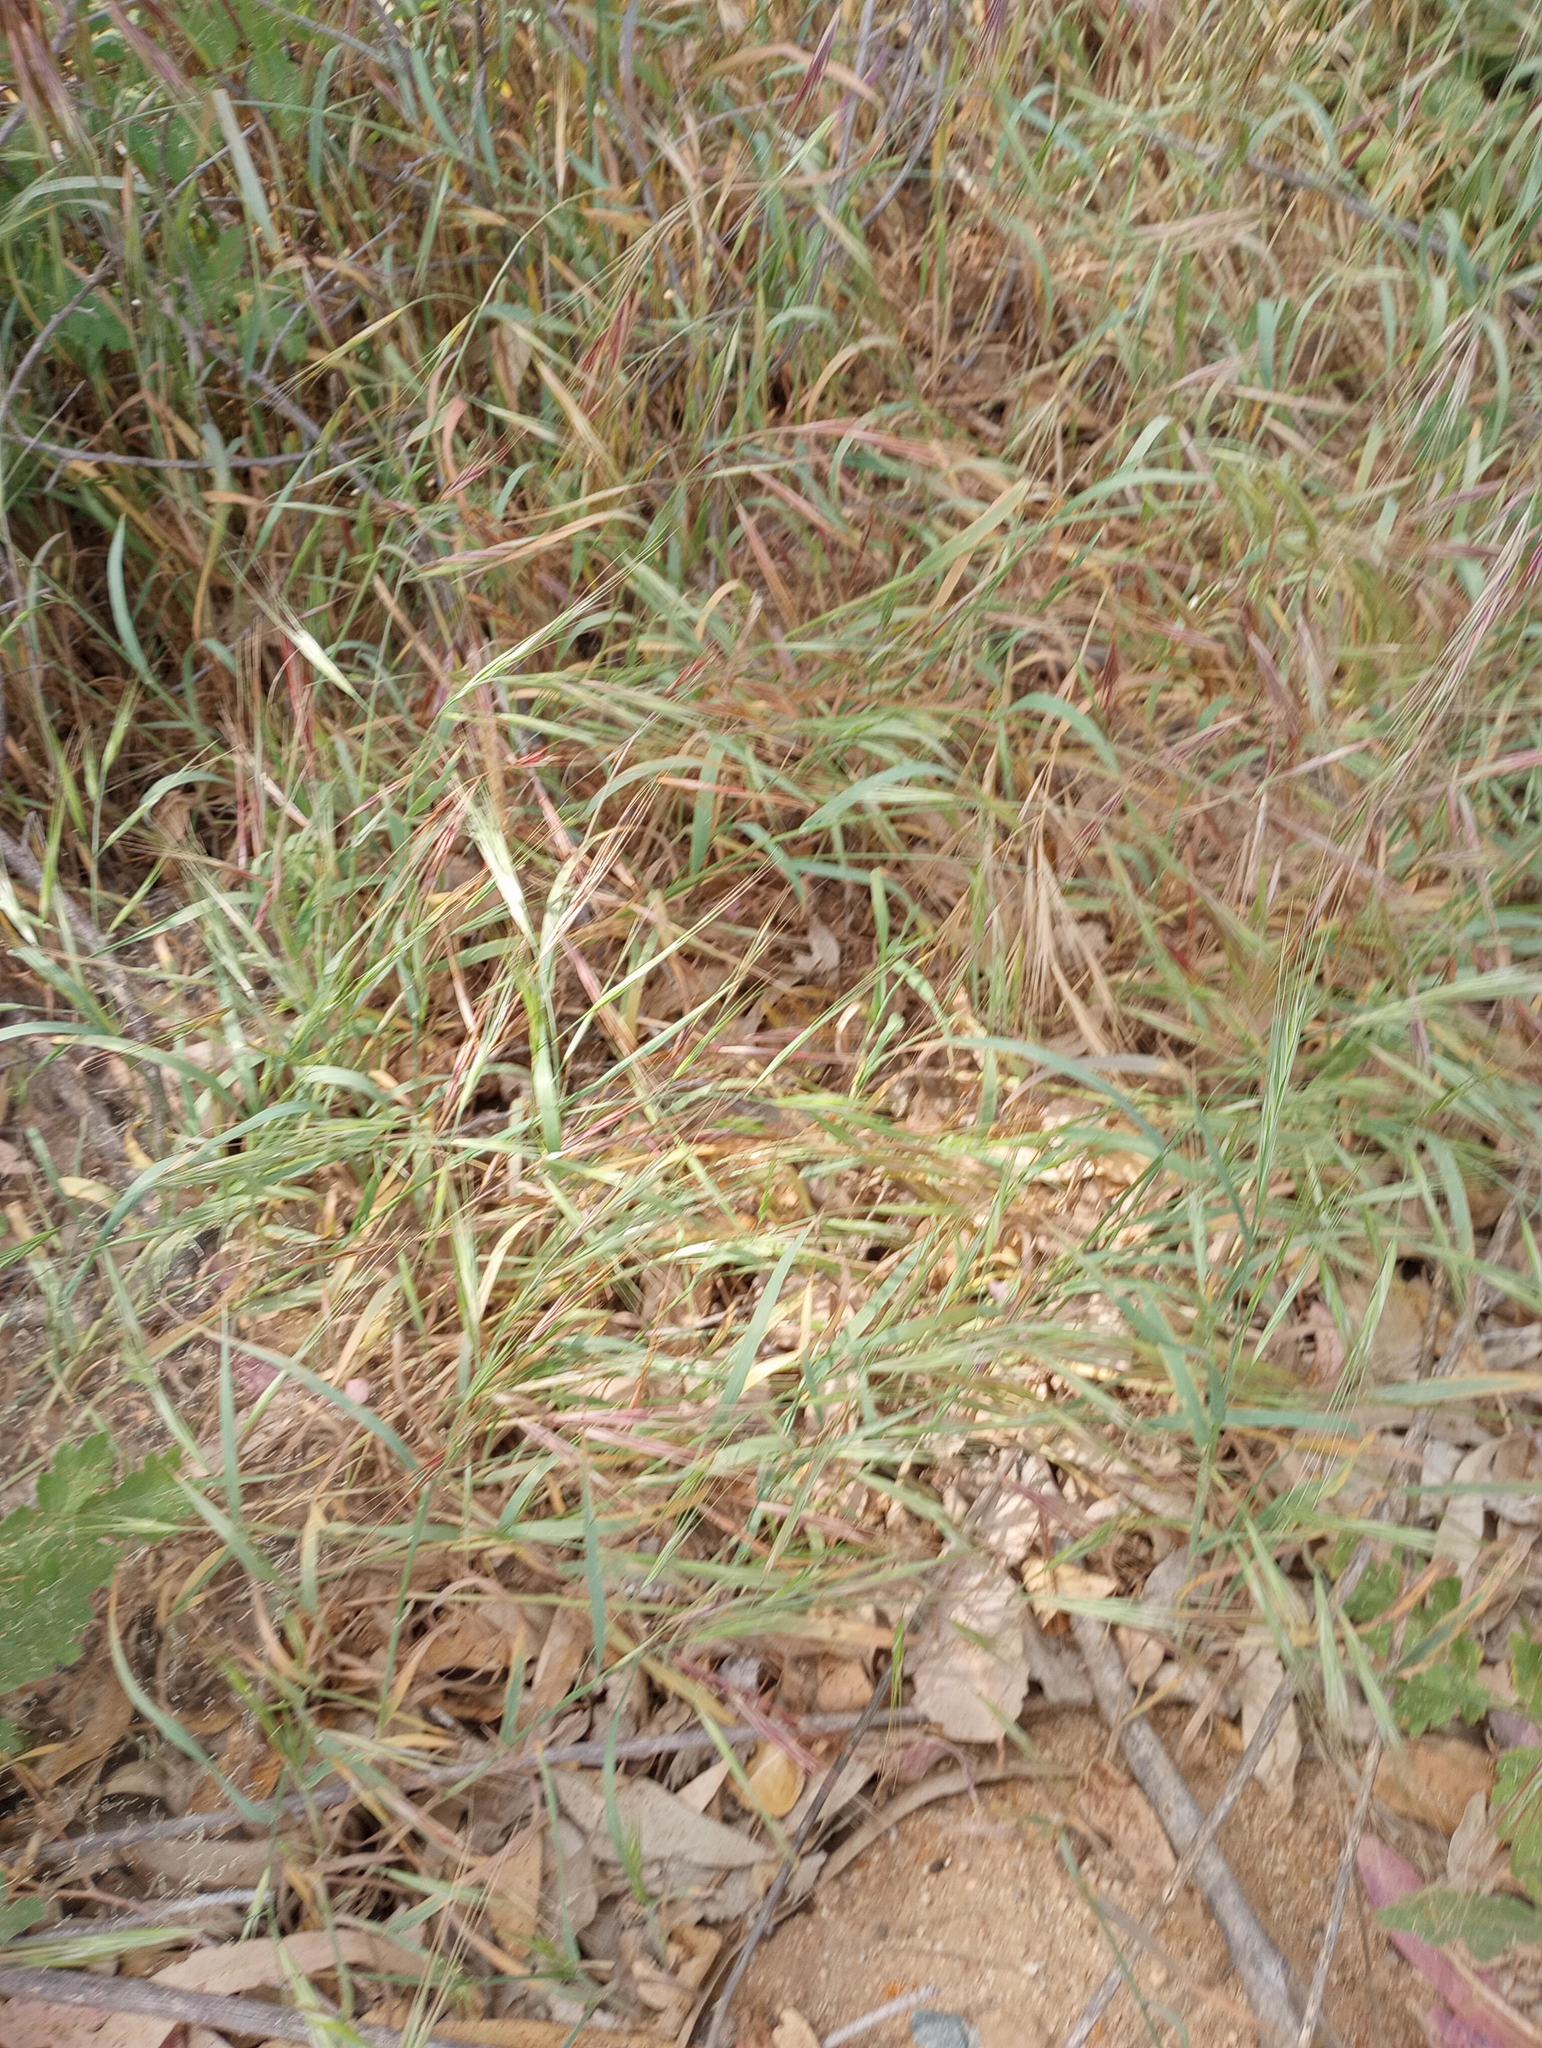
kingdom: Plantae
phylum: Tracheophyta
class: Liliopsida
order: Poales
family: Poaceae
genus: Bromus
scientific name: Bromus diandrus
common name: Ripgut brome
